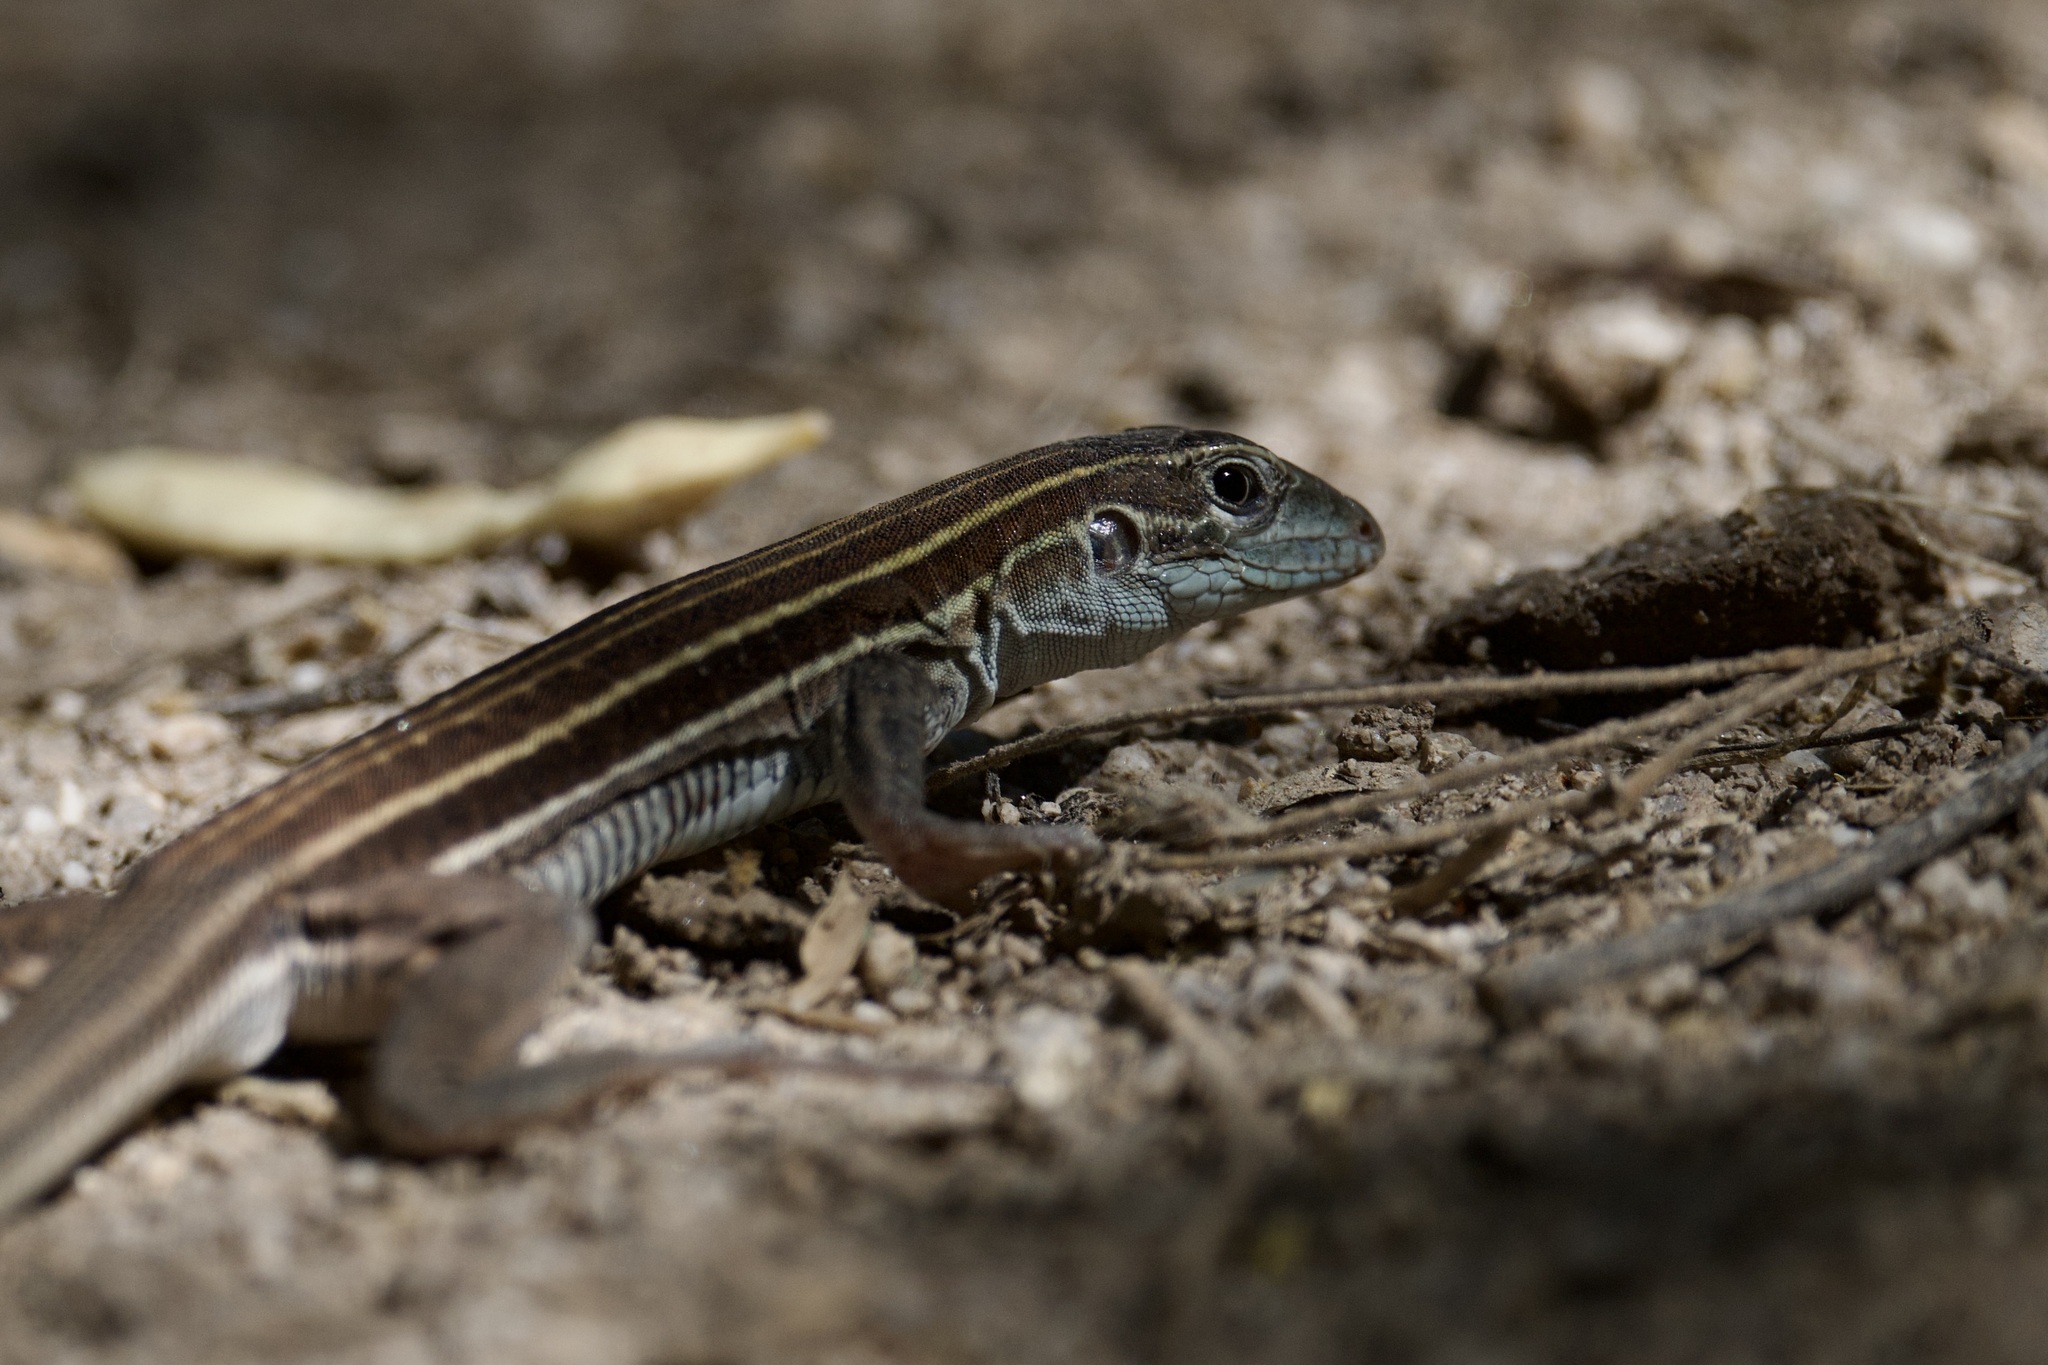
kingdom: Animalia
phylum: Chordata
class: Squamata
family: Teiidae
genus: Aspidoscelis
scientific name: Aspidoscelis sonorae
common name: Sonoran spotted whiptail
